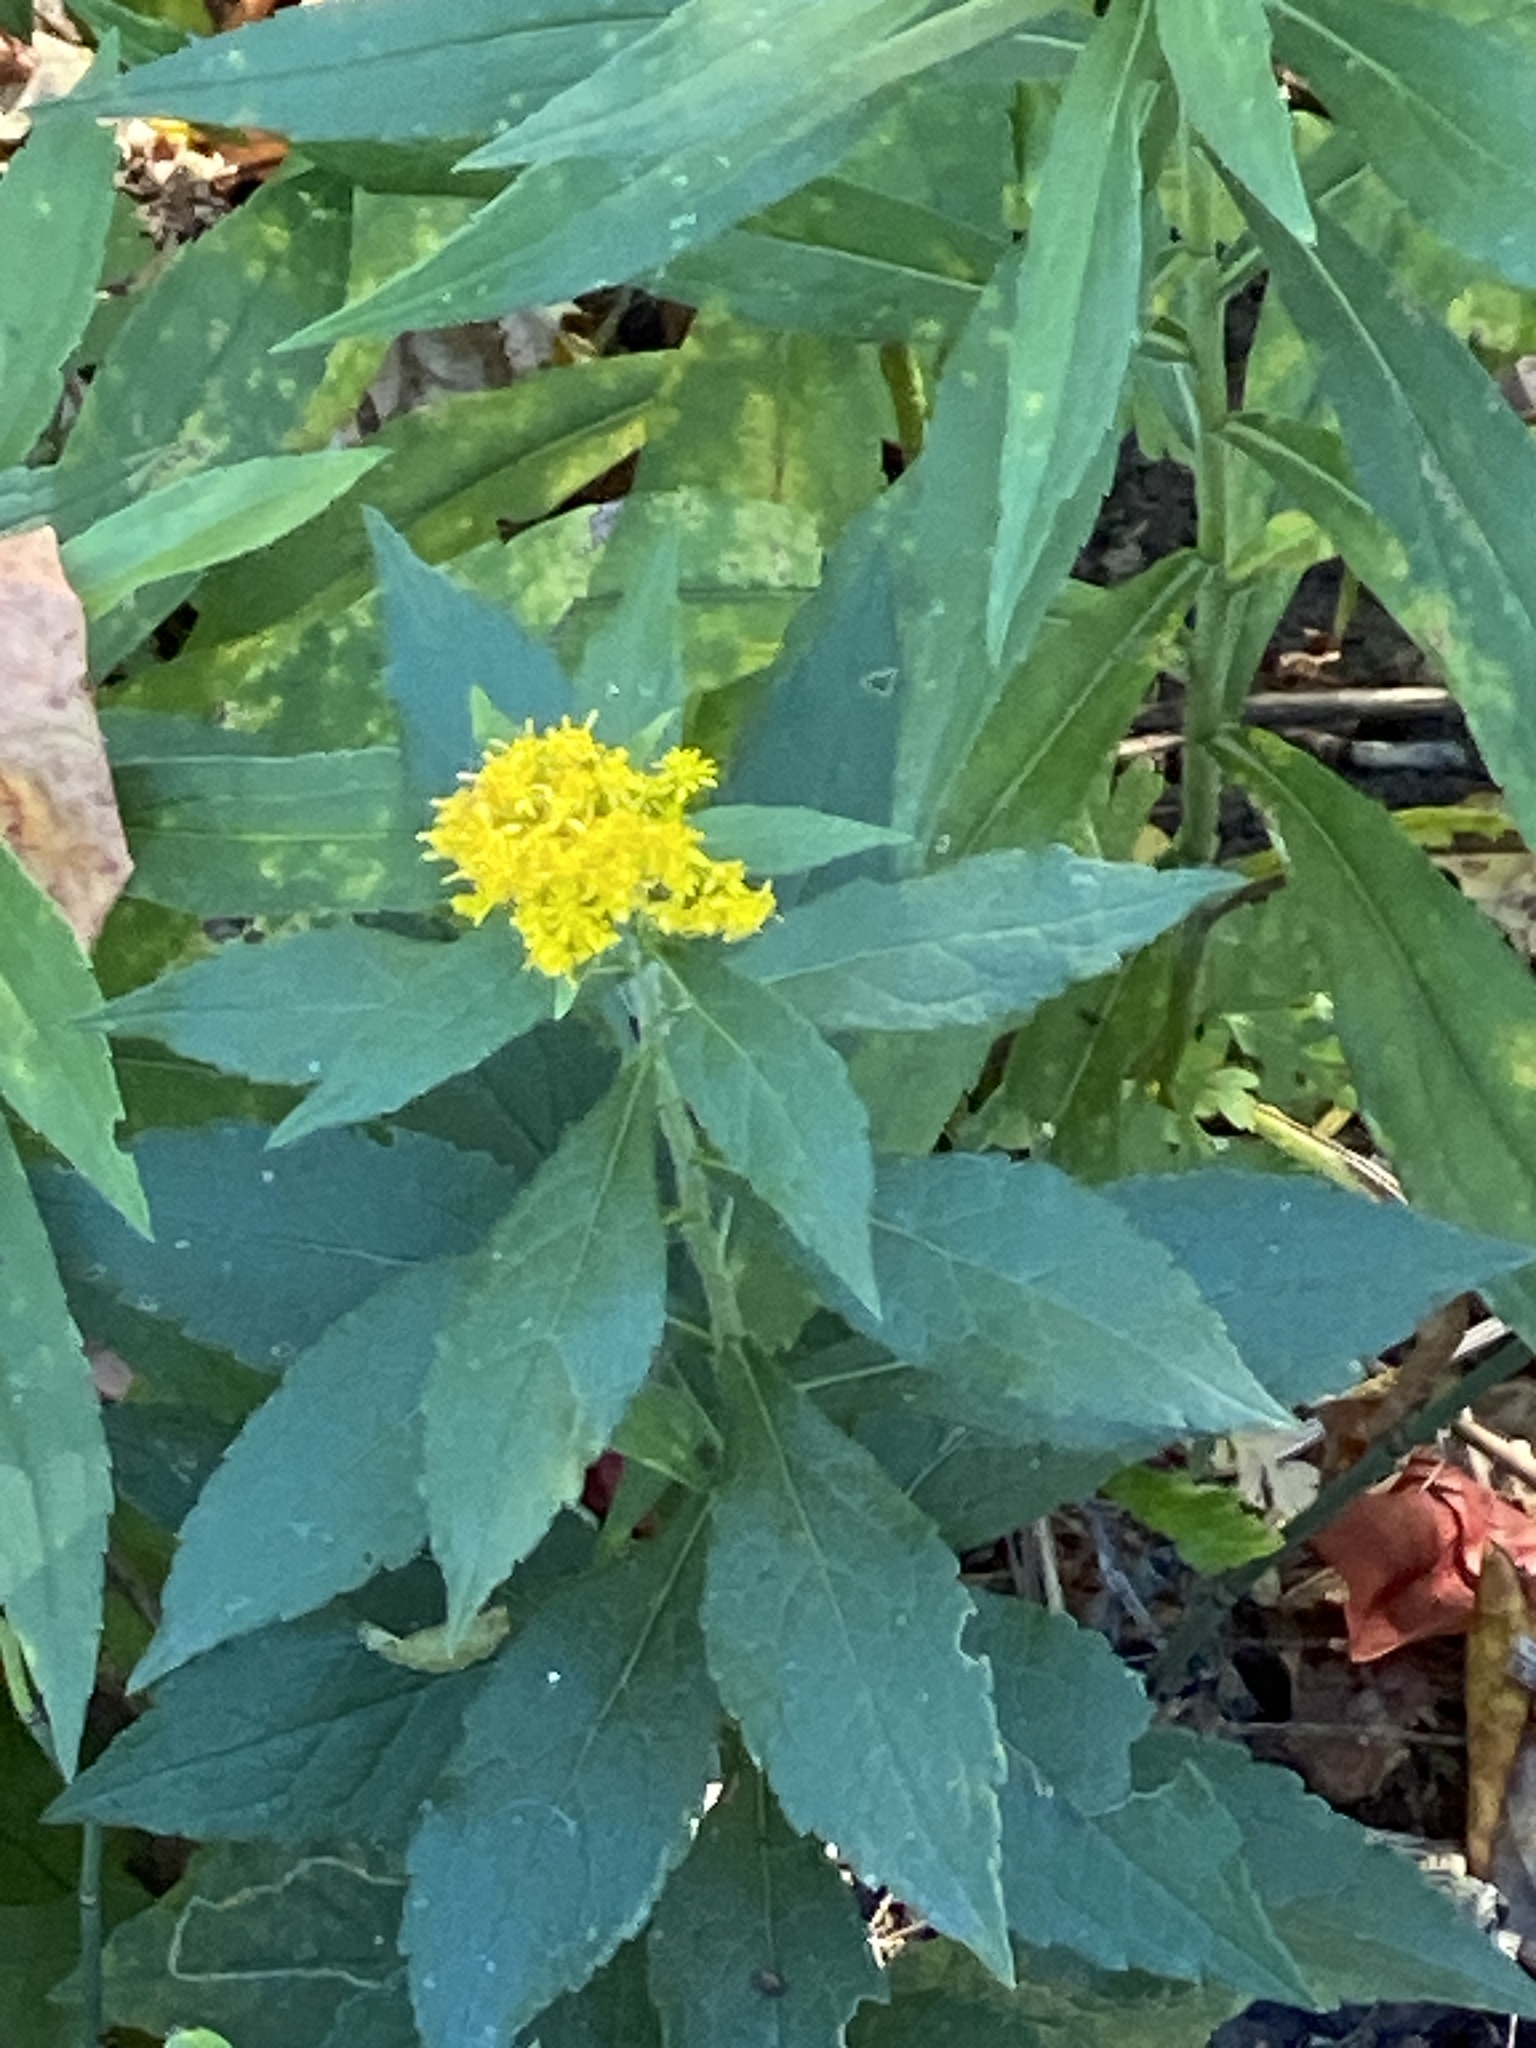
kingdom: Plantae
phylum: Tracheophyta
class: Magnoliopsida
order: Asterales
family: Asteraceae
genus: Solidago
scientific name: Solidago rugosa
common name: Rough-stemmed goldenrod
